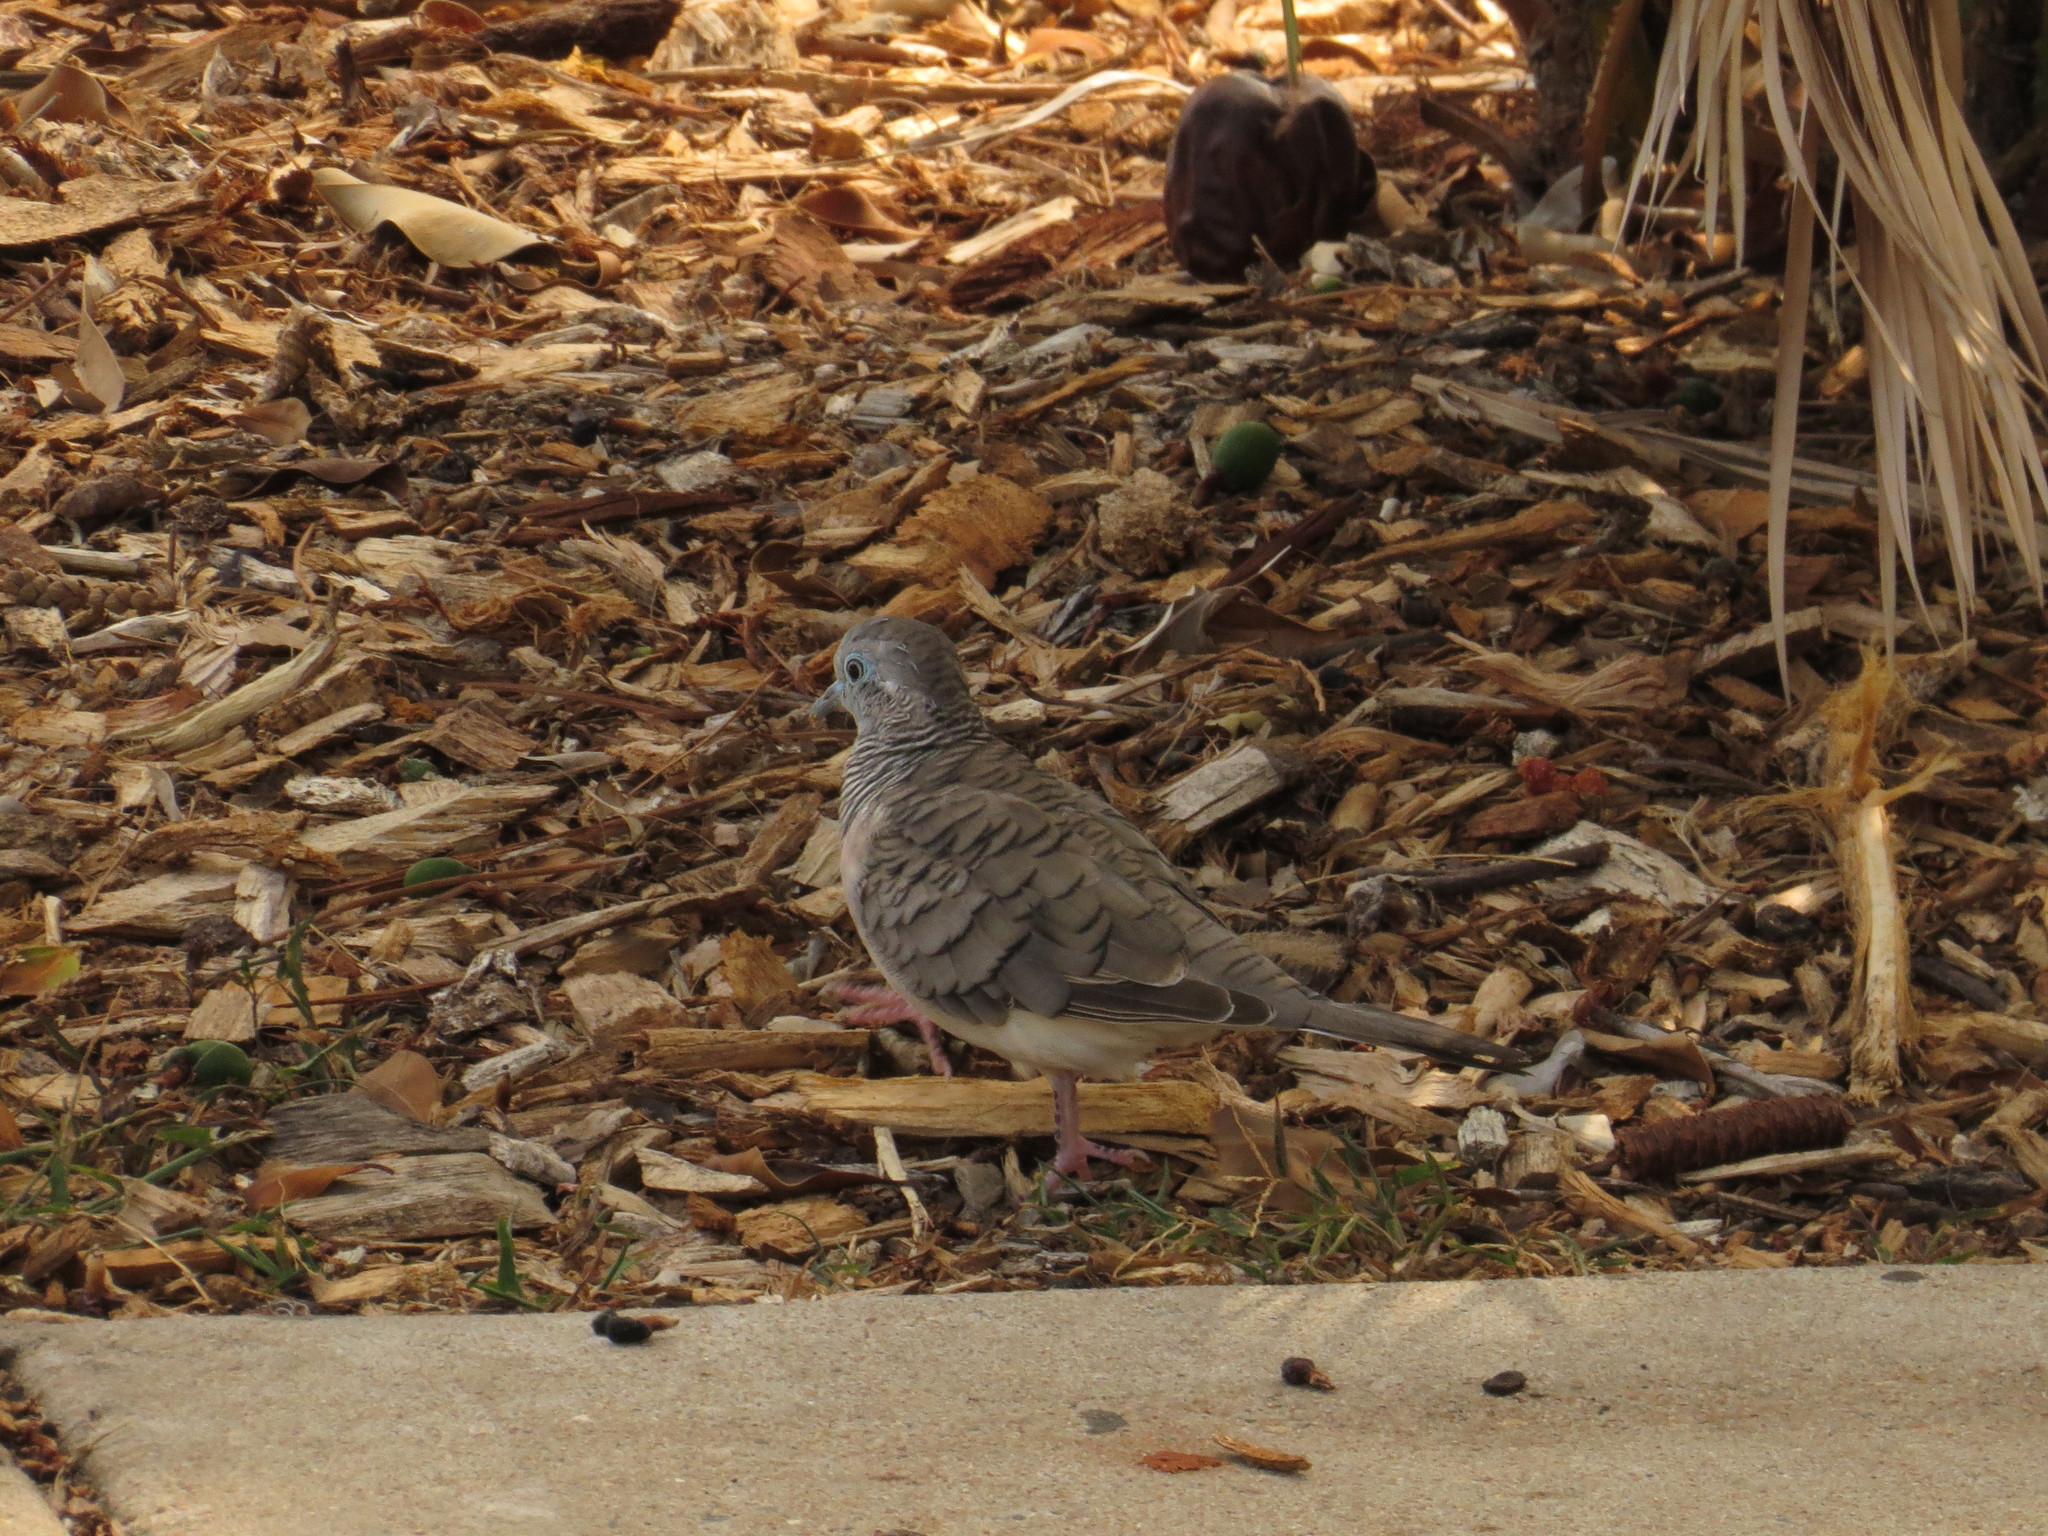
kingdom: Animalia
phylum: Chordata
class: Aves
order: Columbiformes
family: Columbidae
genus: Geopelia
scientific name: Geopelia placida
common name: Peaceful dove
